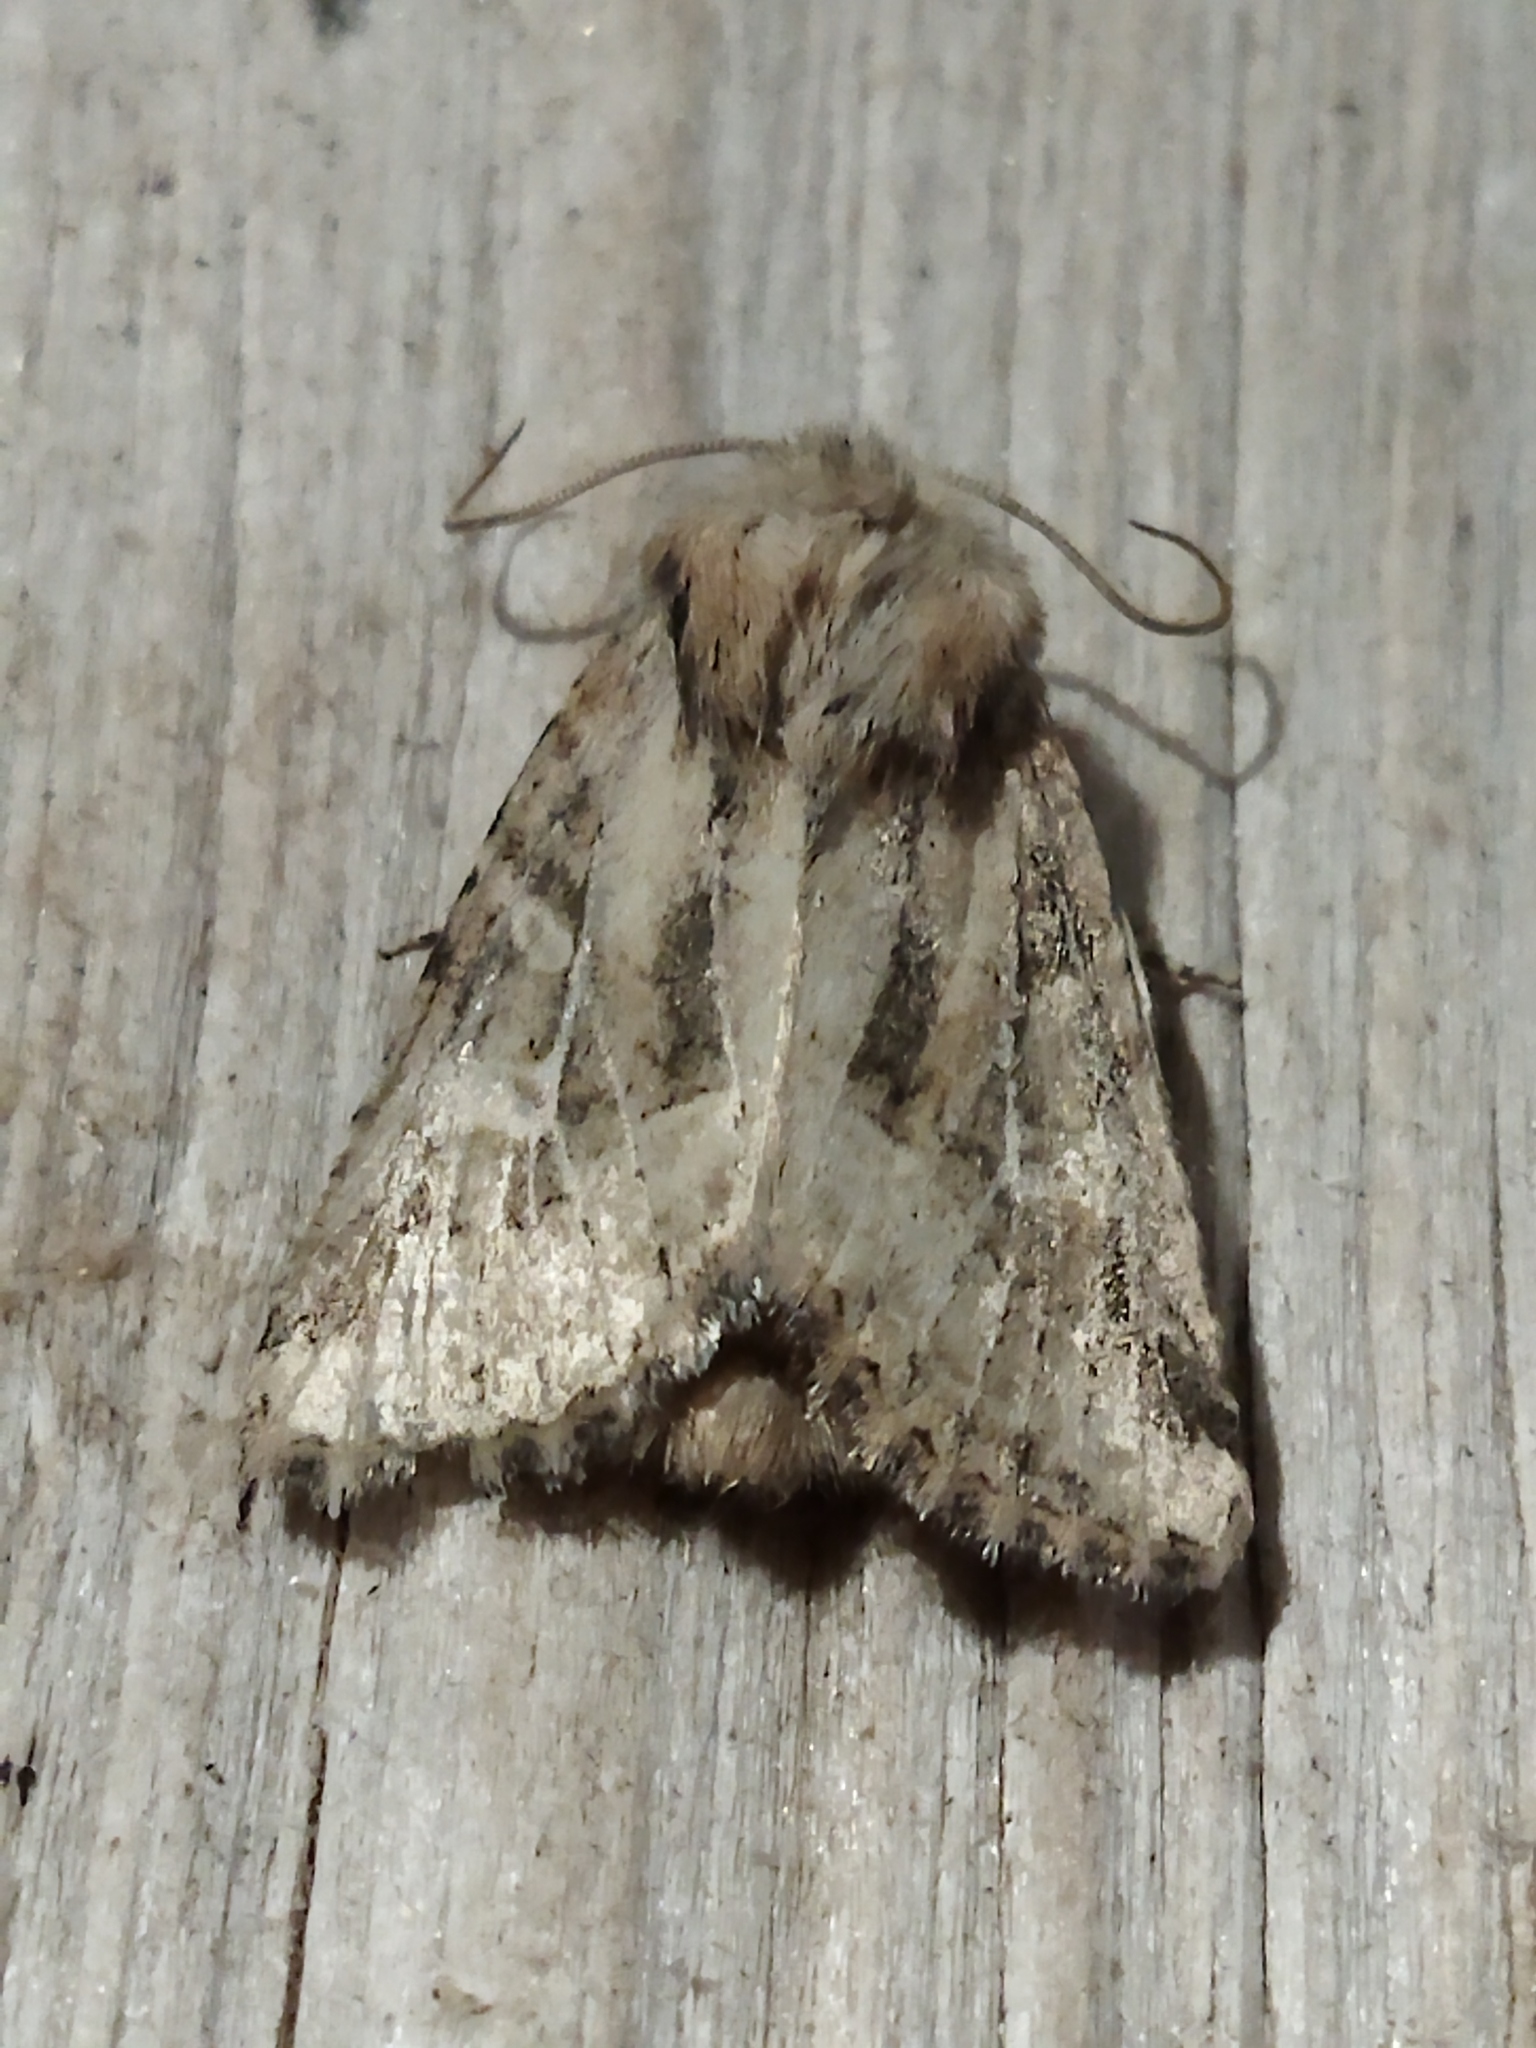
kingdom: Animalia
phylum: Arthropoda
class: Insecta
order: Lepidoptera
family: Noctuidae
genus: Luperina
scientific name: Luperina dumerilii
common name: Dumeril's rustic
